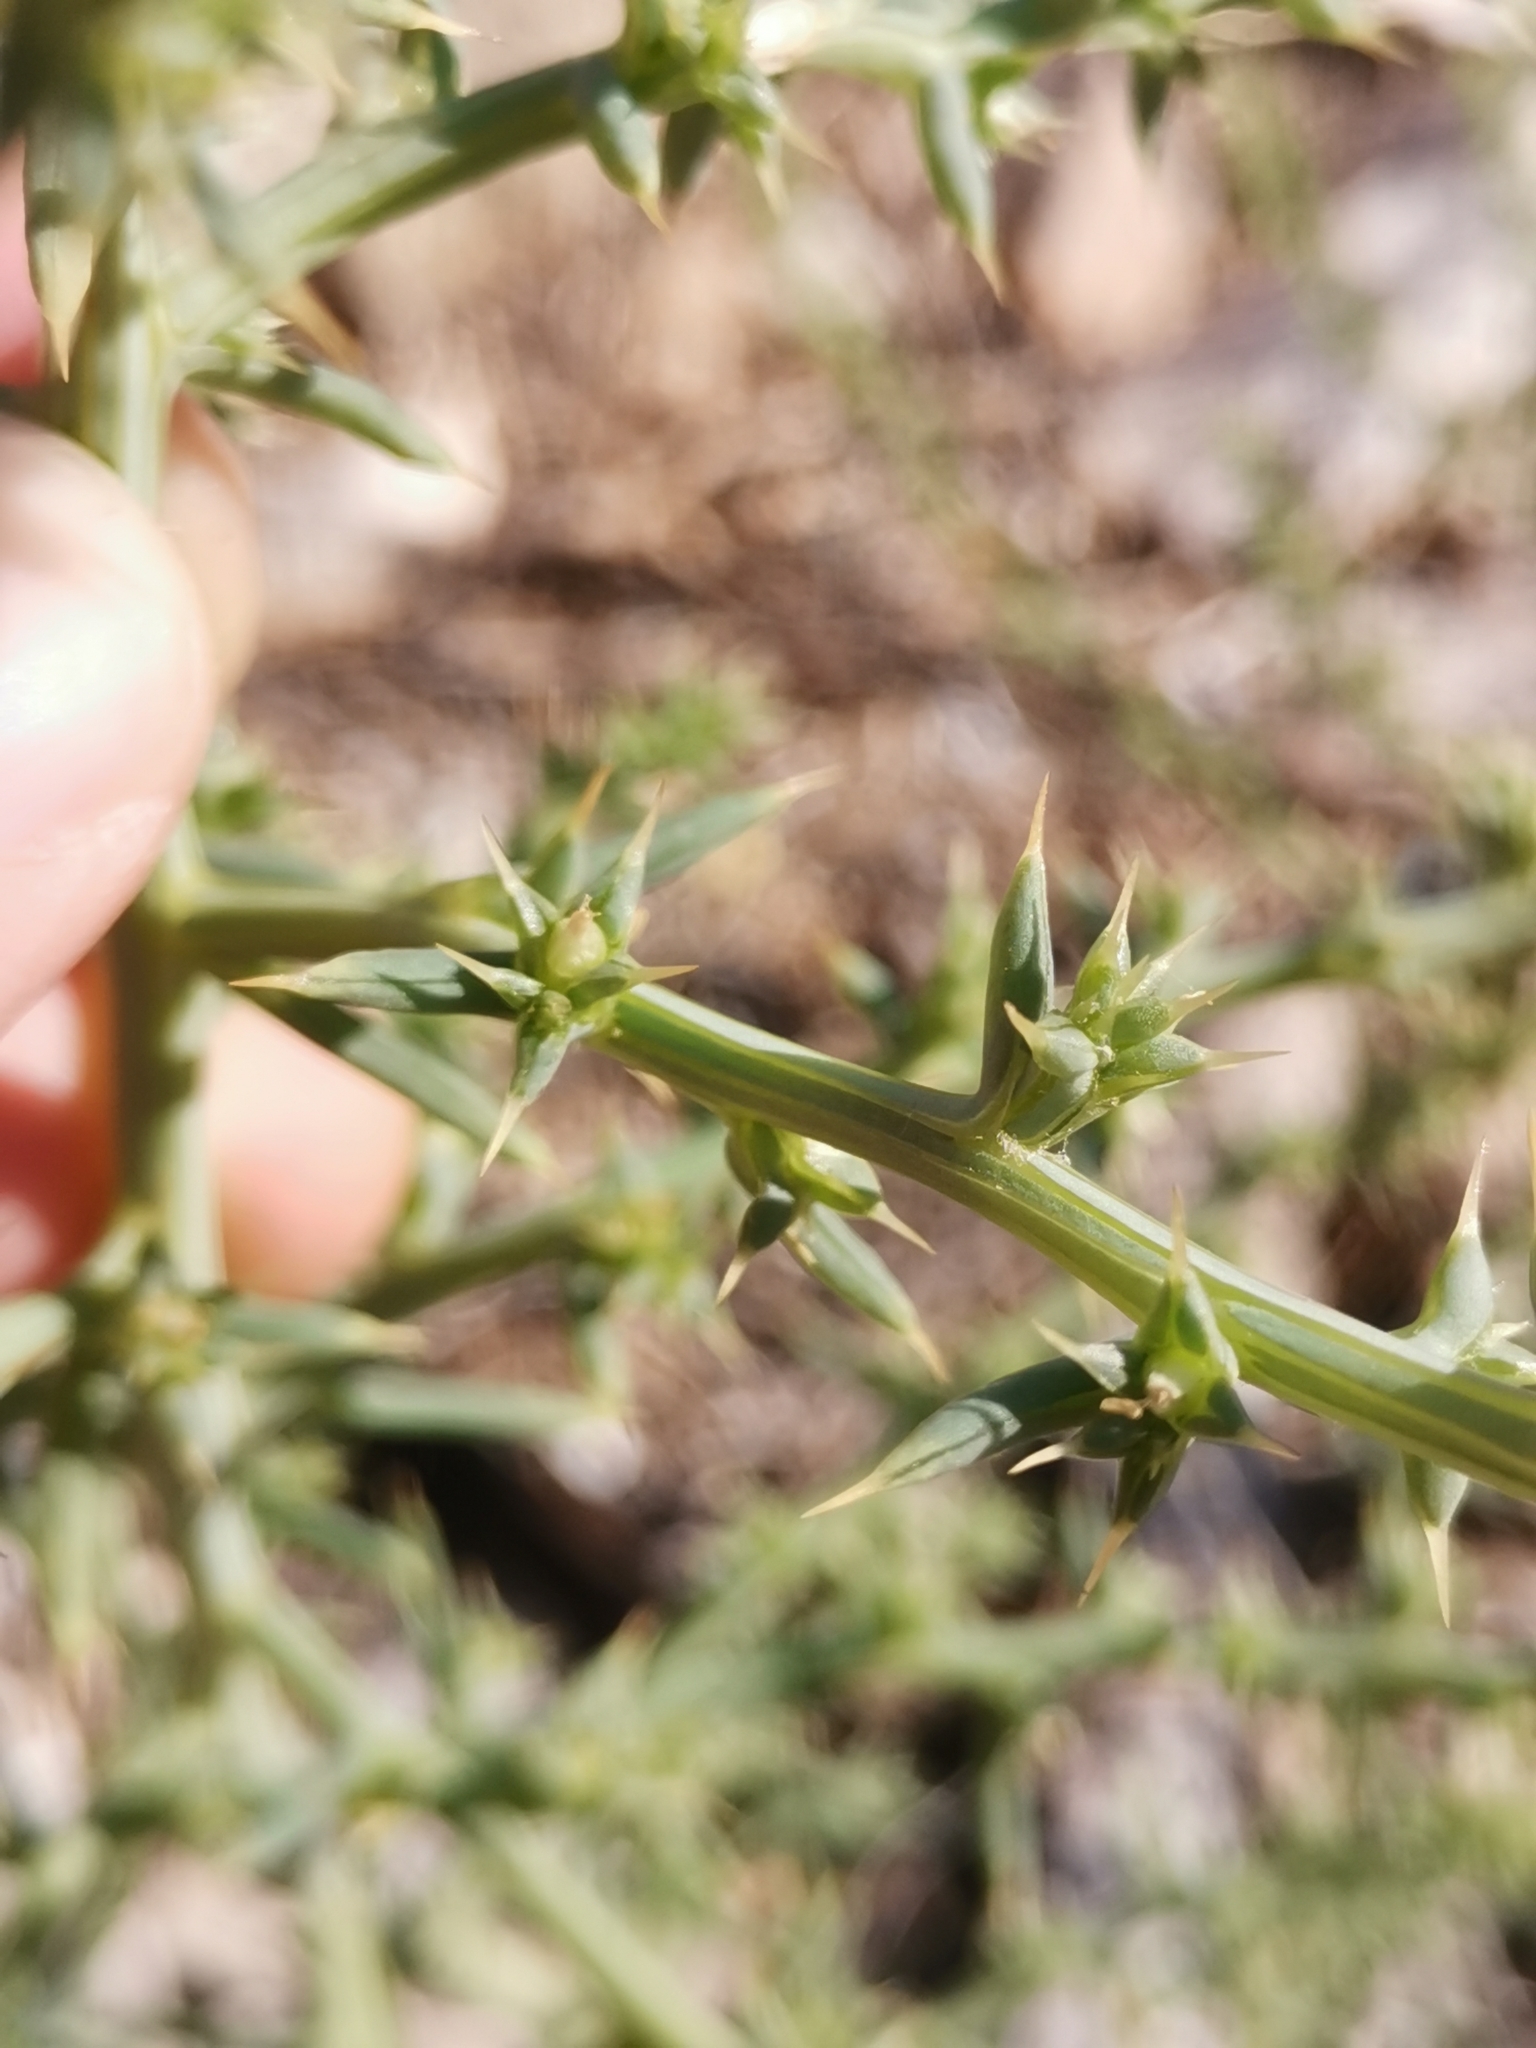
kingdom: Plantae
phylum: Tracheophyta
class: Magnoliopsida
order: Caryophyllales
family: Amaranthaceae
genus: Salsola
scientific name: Salsola kali
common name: Saltwort
